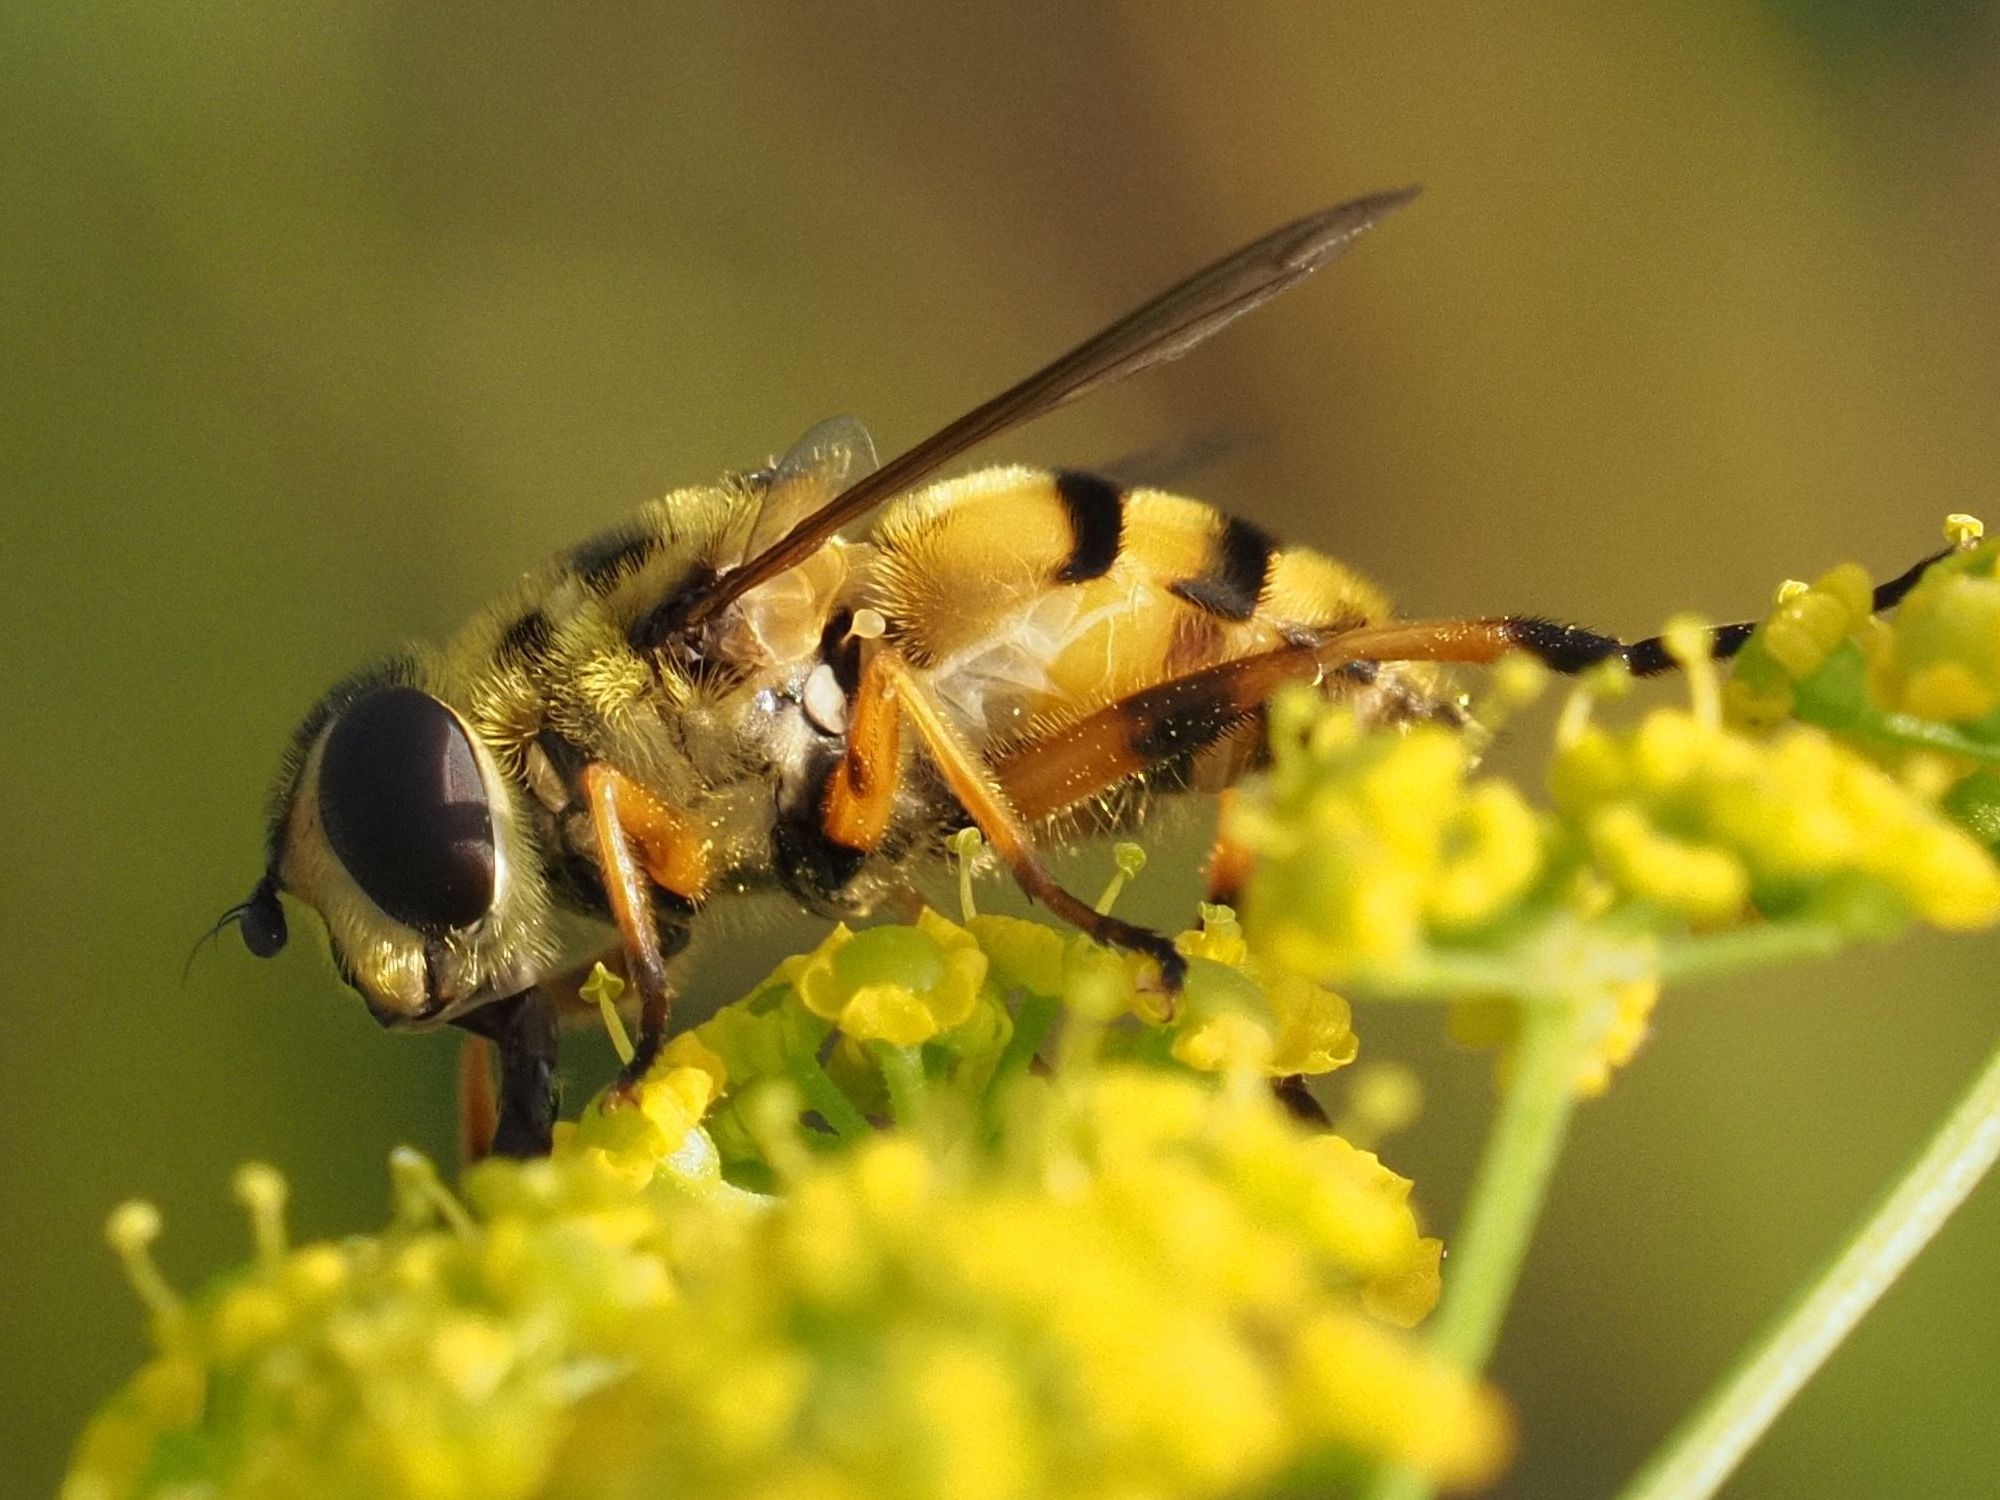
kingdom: Animalia
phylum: Arthropoda
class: Insecta
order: Diptera
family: Syrphidae
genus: Myathropa
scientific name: Myathropa florea
